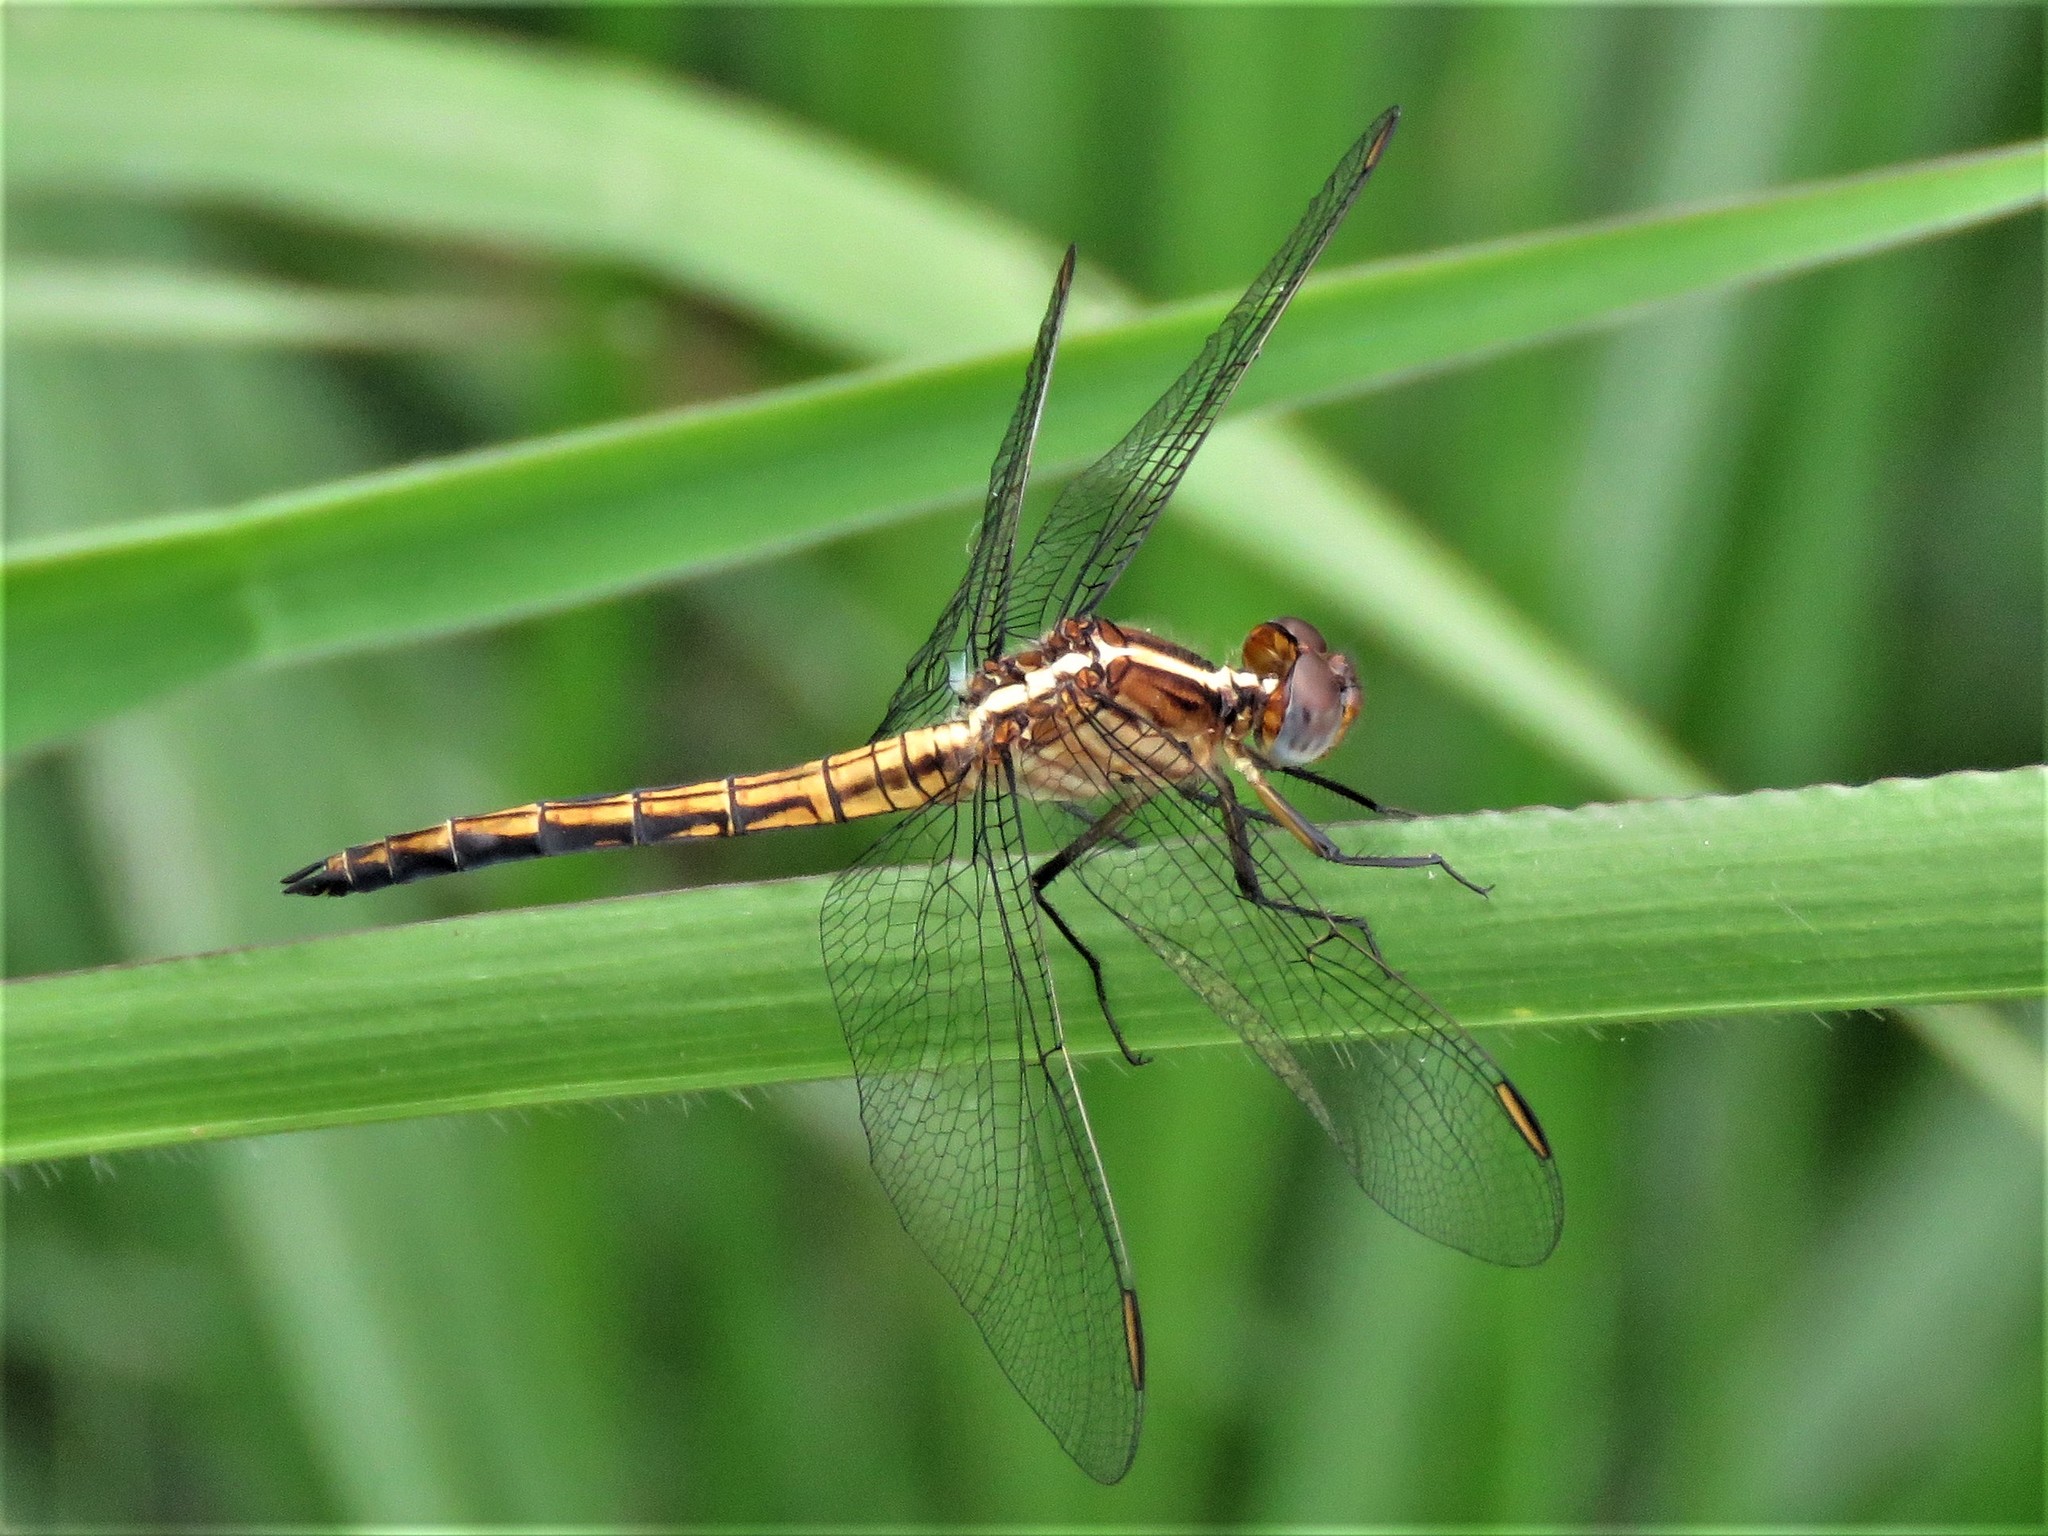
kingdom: Animalia
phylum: Arthropoda
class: Insecta
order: Odonata
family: Libellulidae
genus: Nesciothemis
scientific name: Nesciothemis farinosa
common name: Eastern blacktail
